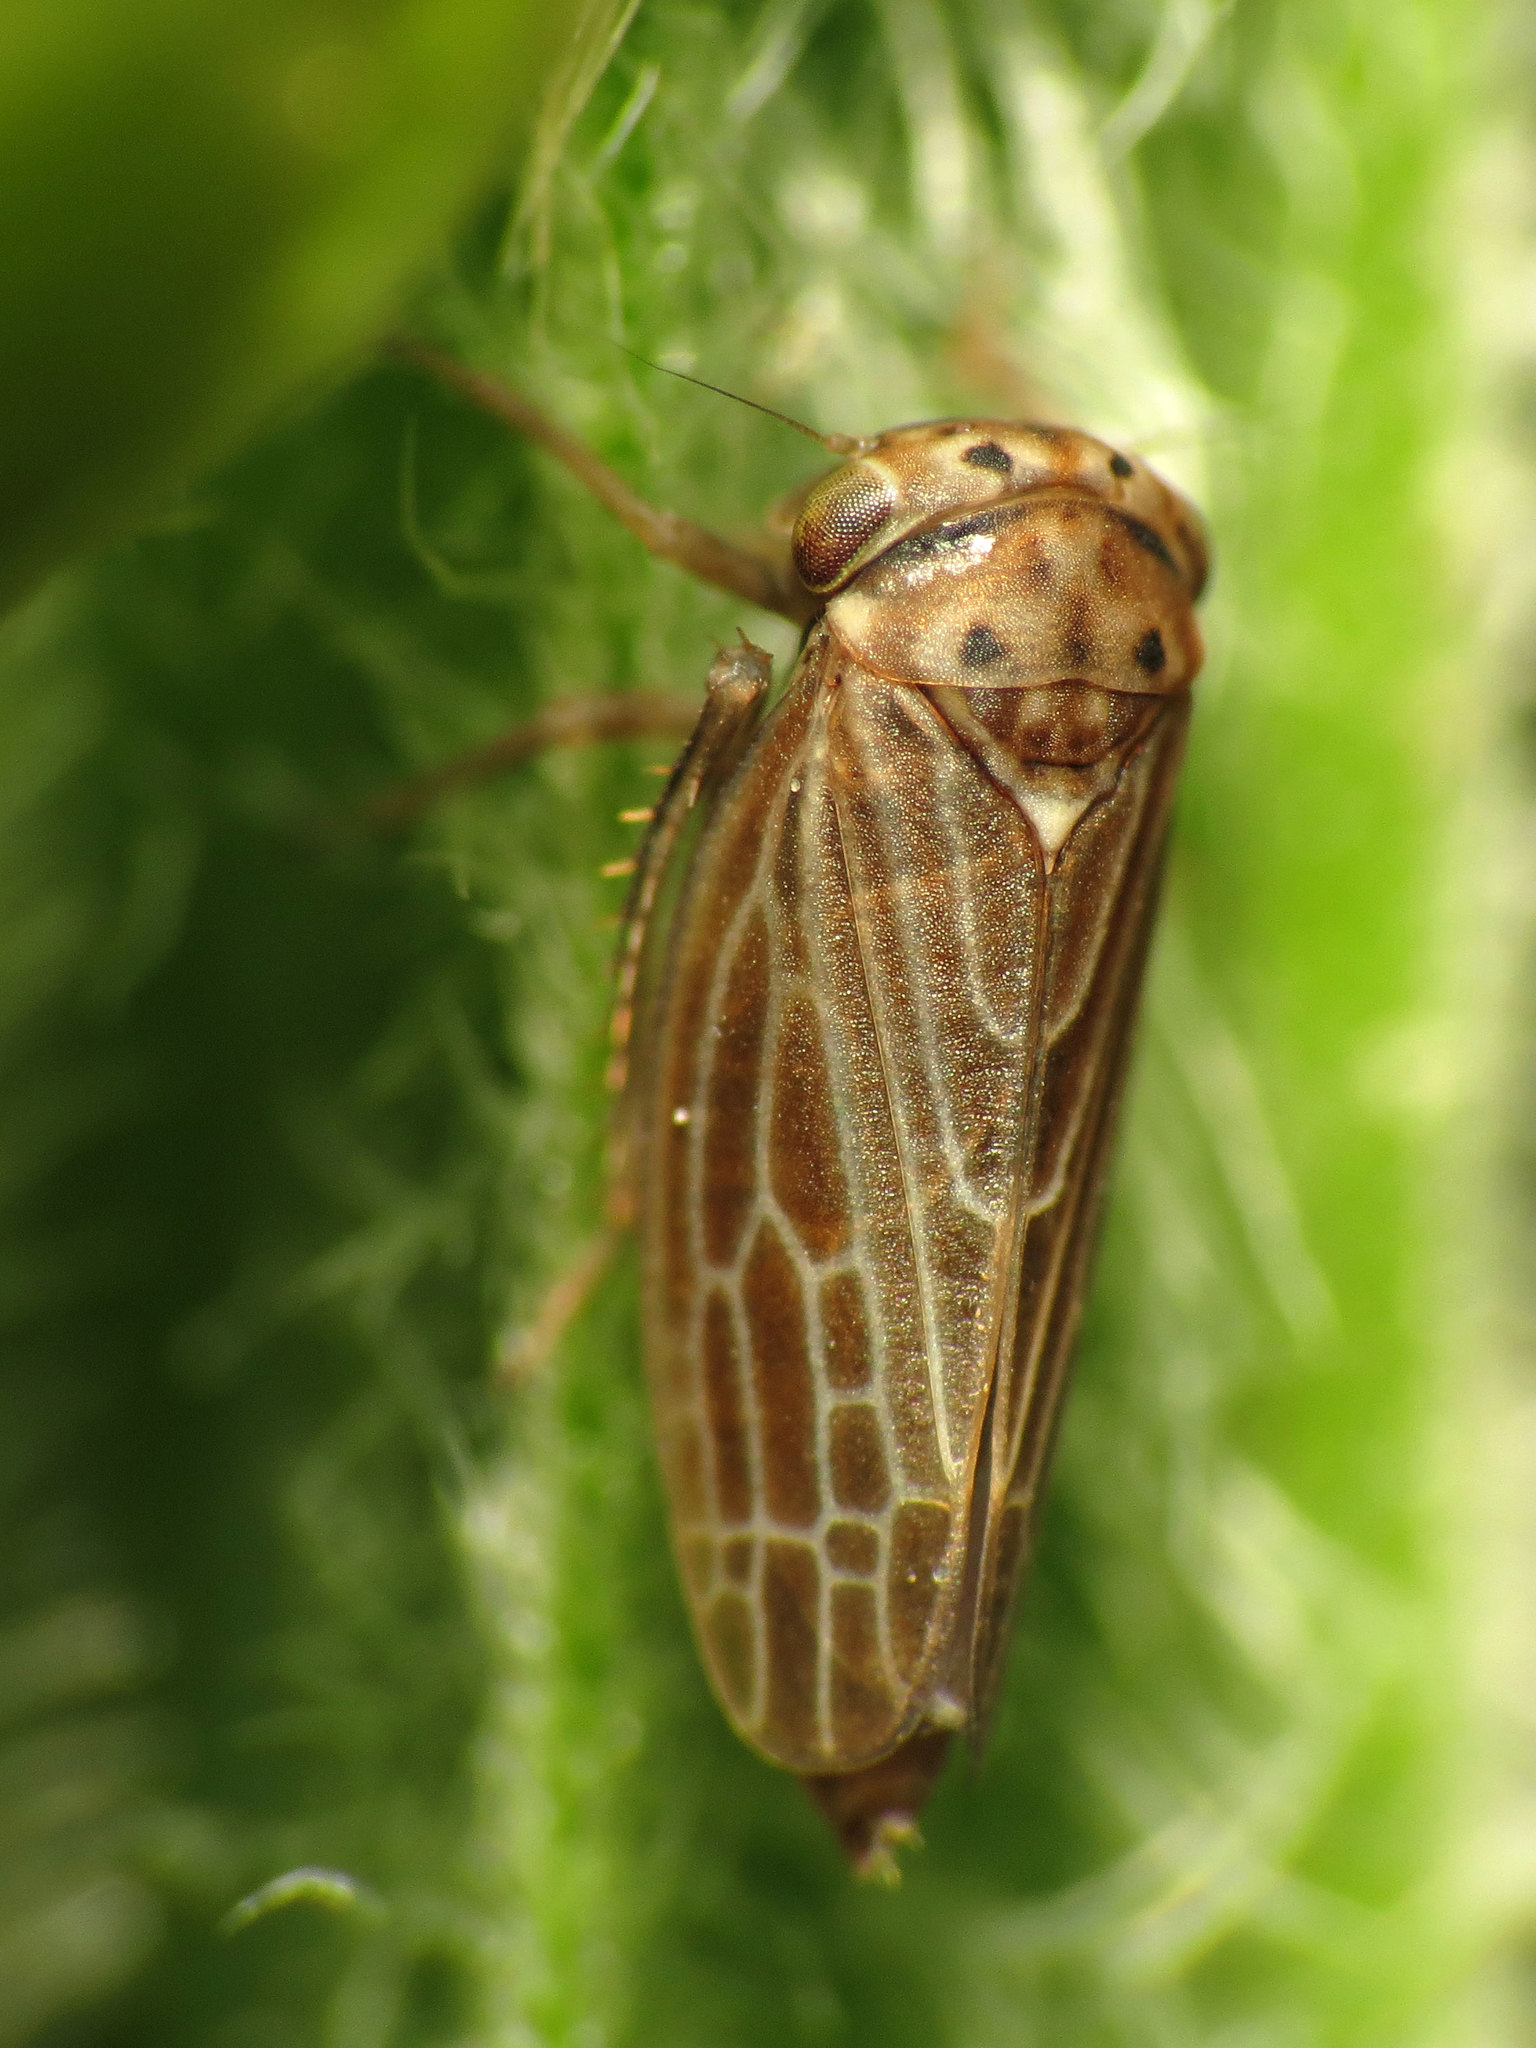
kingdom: Animalia
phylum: Arthropoda
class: Insecta
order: Hemiptera
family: Cicadellidae
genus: Agalliota
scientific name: Agalliota quadripunctata
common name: The four-spotted clover leafhopper
